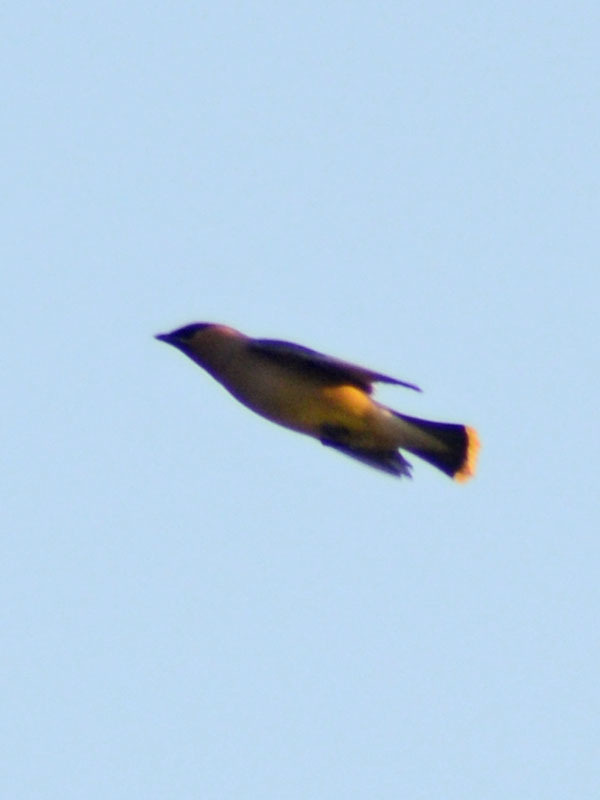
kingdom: Animalia
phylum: Chordata
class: Aves
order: Passeriformes
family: Bombycillidae
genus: Bombycilla
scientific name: Bombycilla cedrorum
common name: Cedar waxwing
